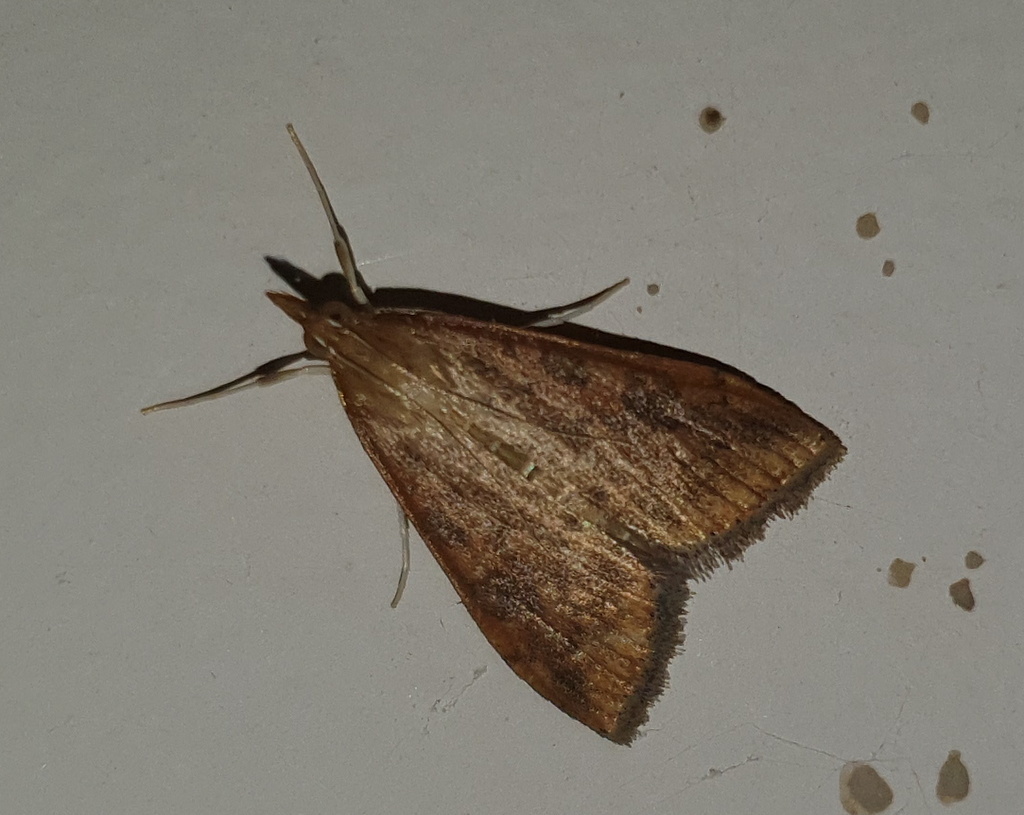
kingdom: Animalia
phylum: Arthropoda
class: Insecta
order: Lepidoptera
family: Crambidae
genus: Udea
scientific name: Udea ferrugalis
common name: Rusty dot
